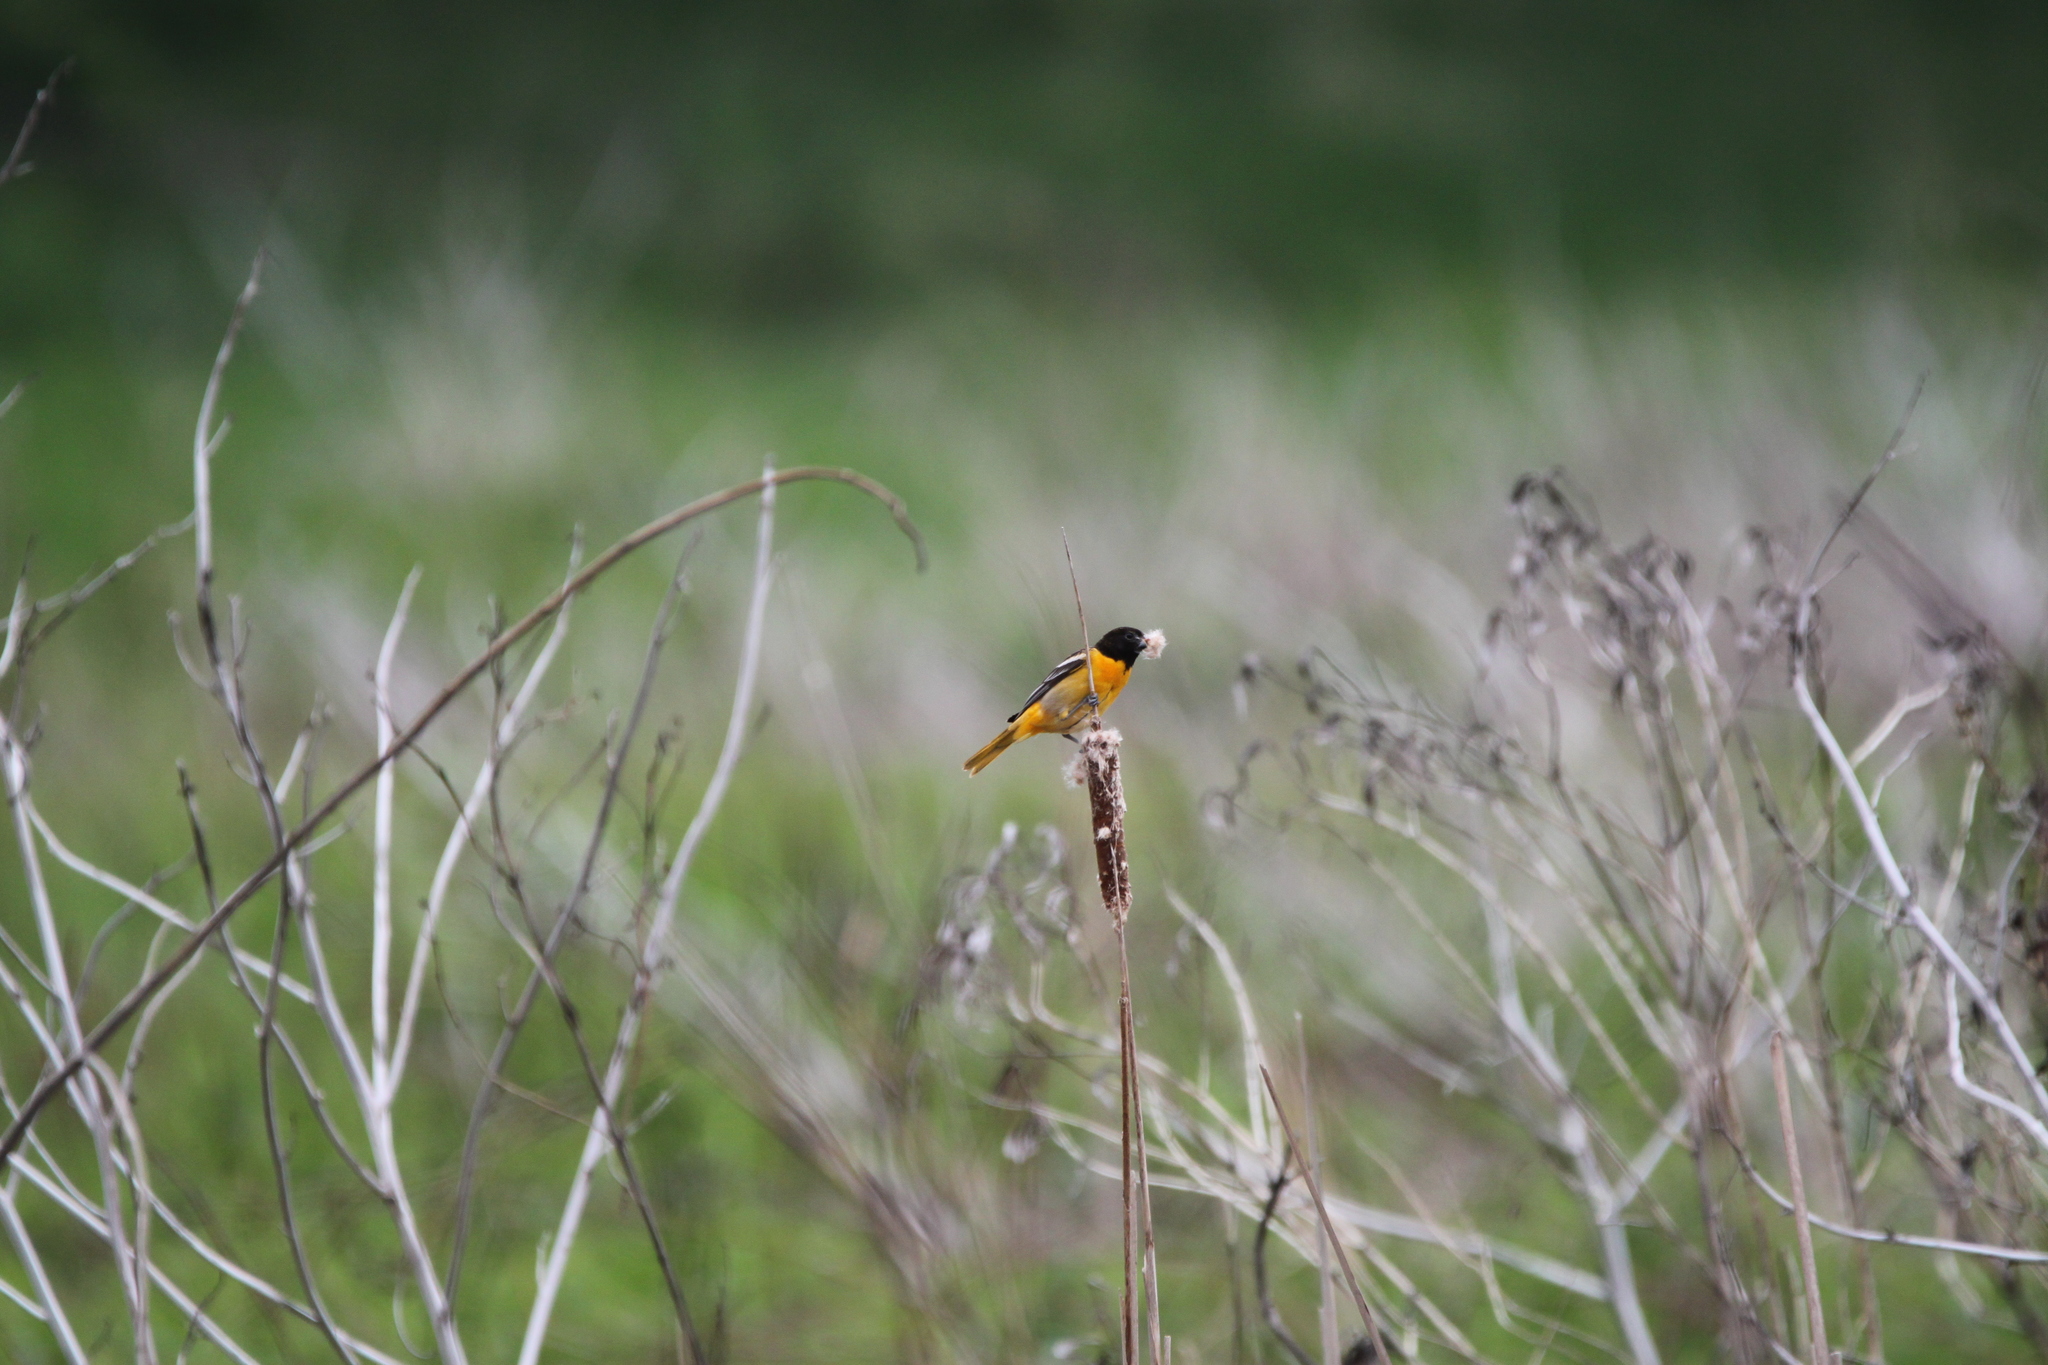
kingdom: Animalia
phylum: Chordata
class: Aves
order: Passeriformes
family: Icteridae
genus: Icterus
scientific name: Icterus galbula
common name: Baltimore oriole
